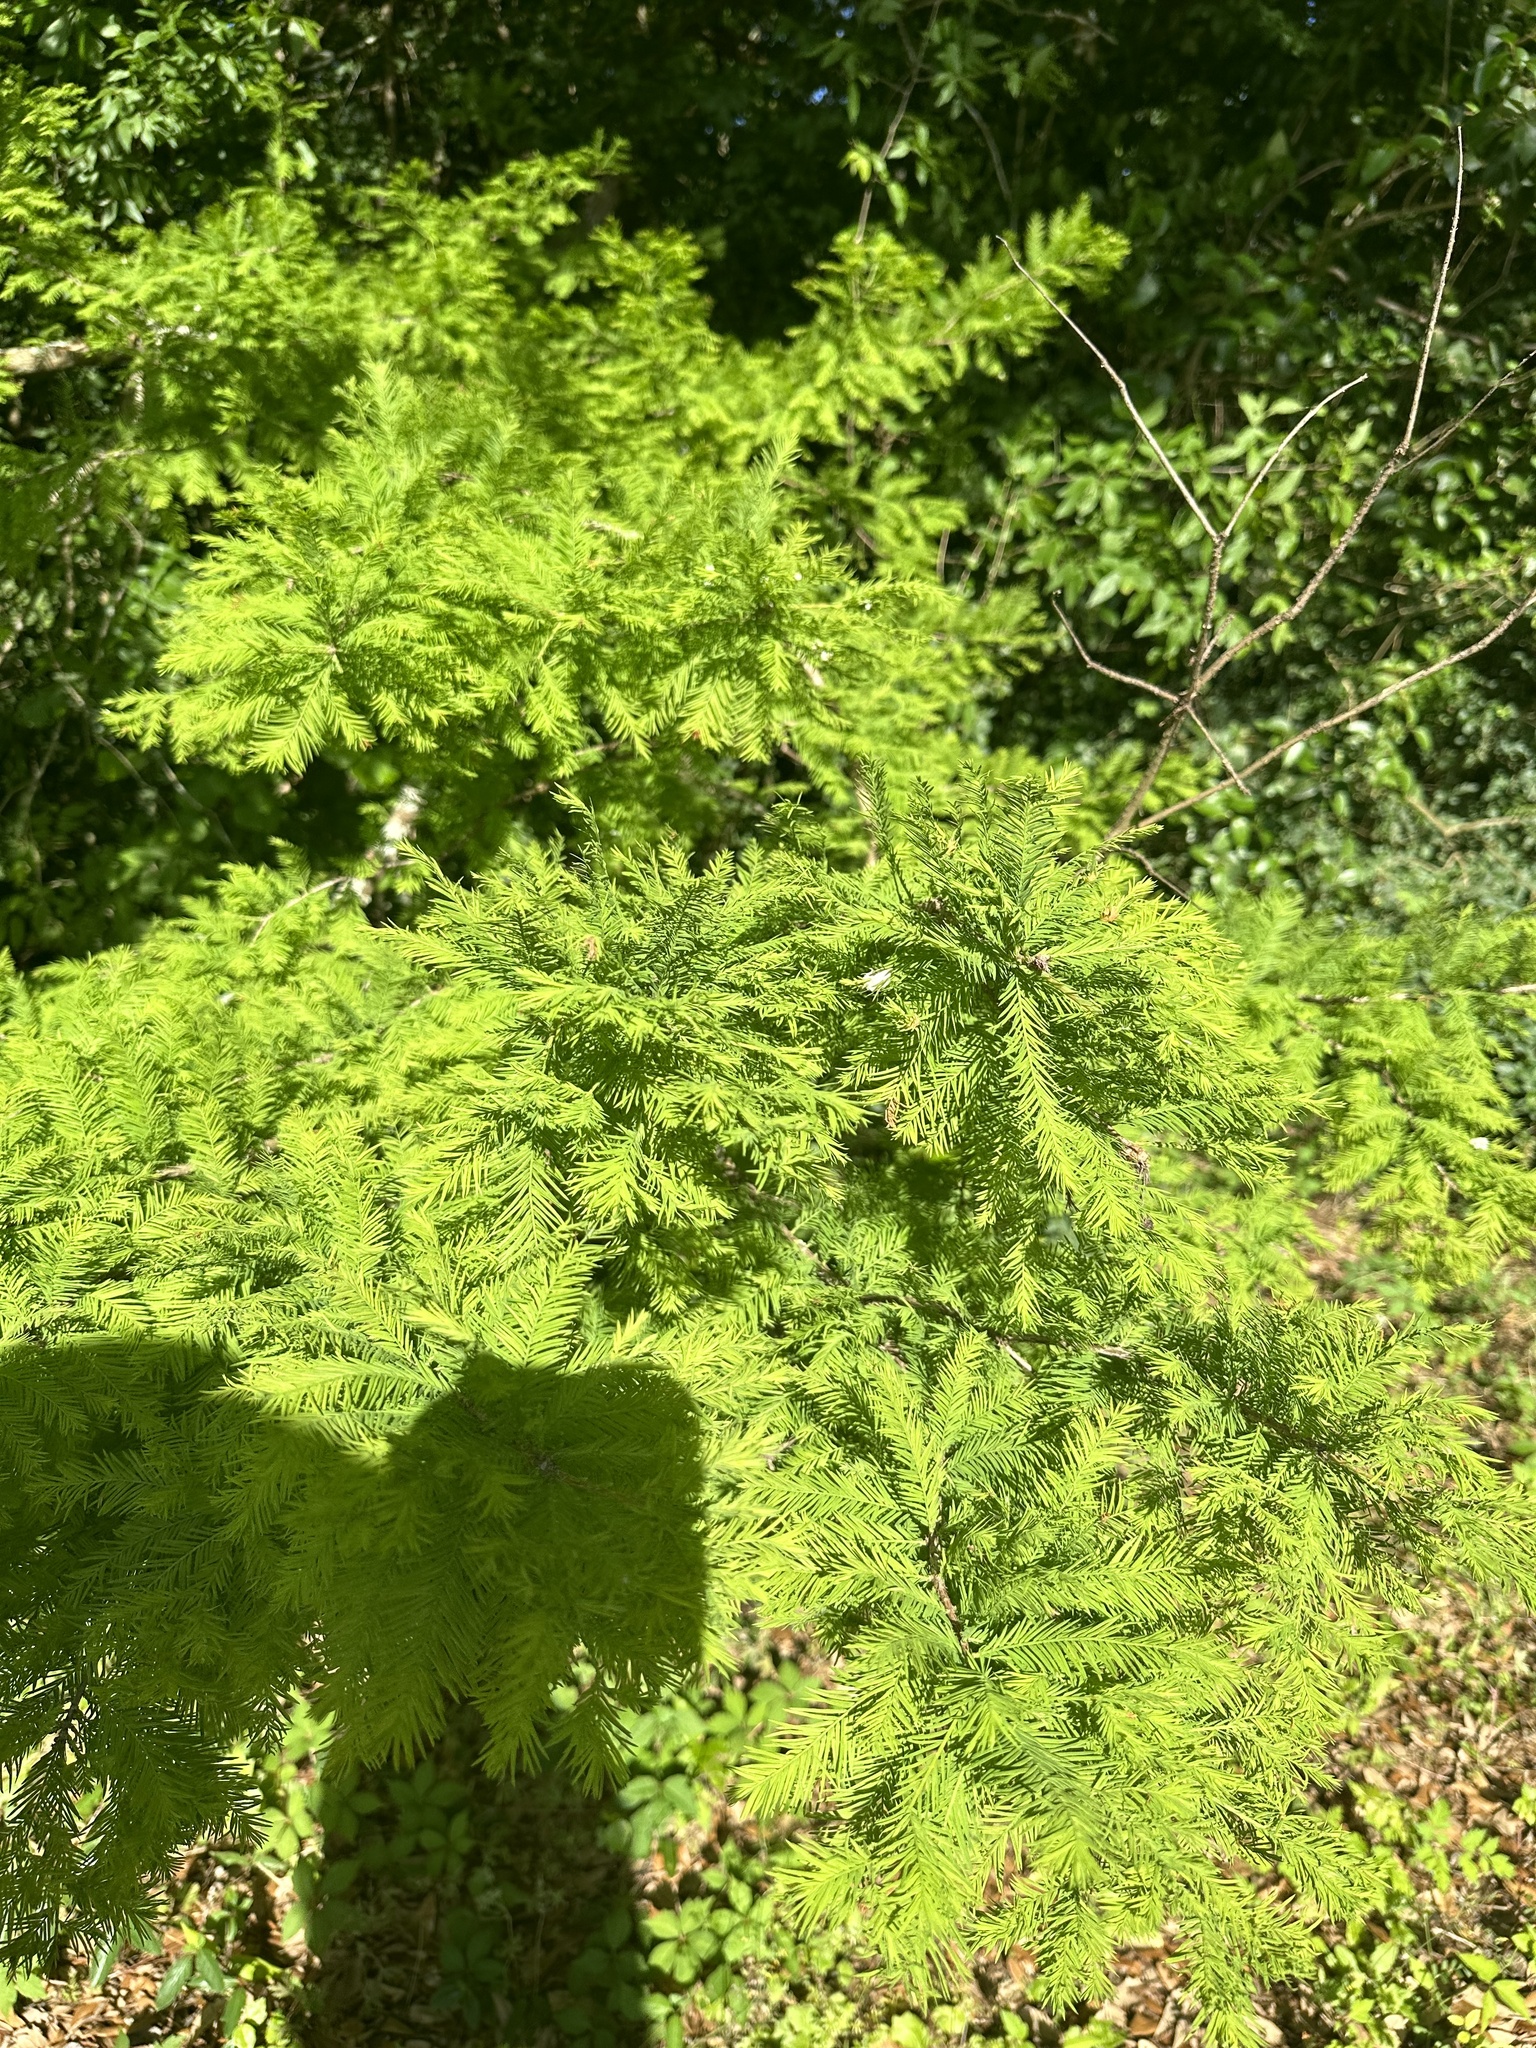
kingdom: Plantae
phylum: Tracheophyta
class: Pinopsida
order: Pinales
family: Cupressaceae
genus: Taxodium
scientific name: Taxodium distichum
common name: Bald cypress
